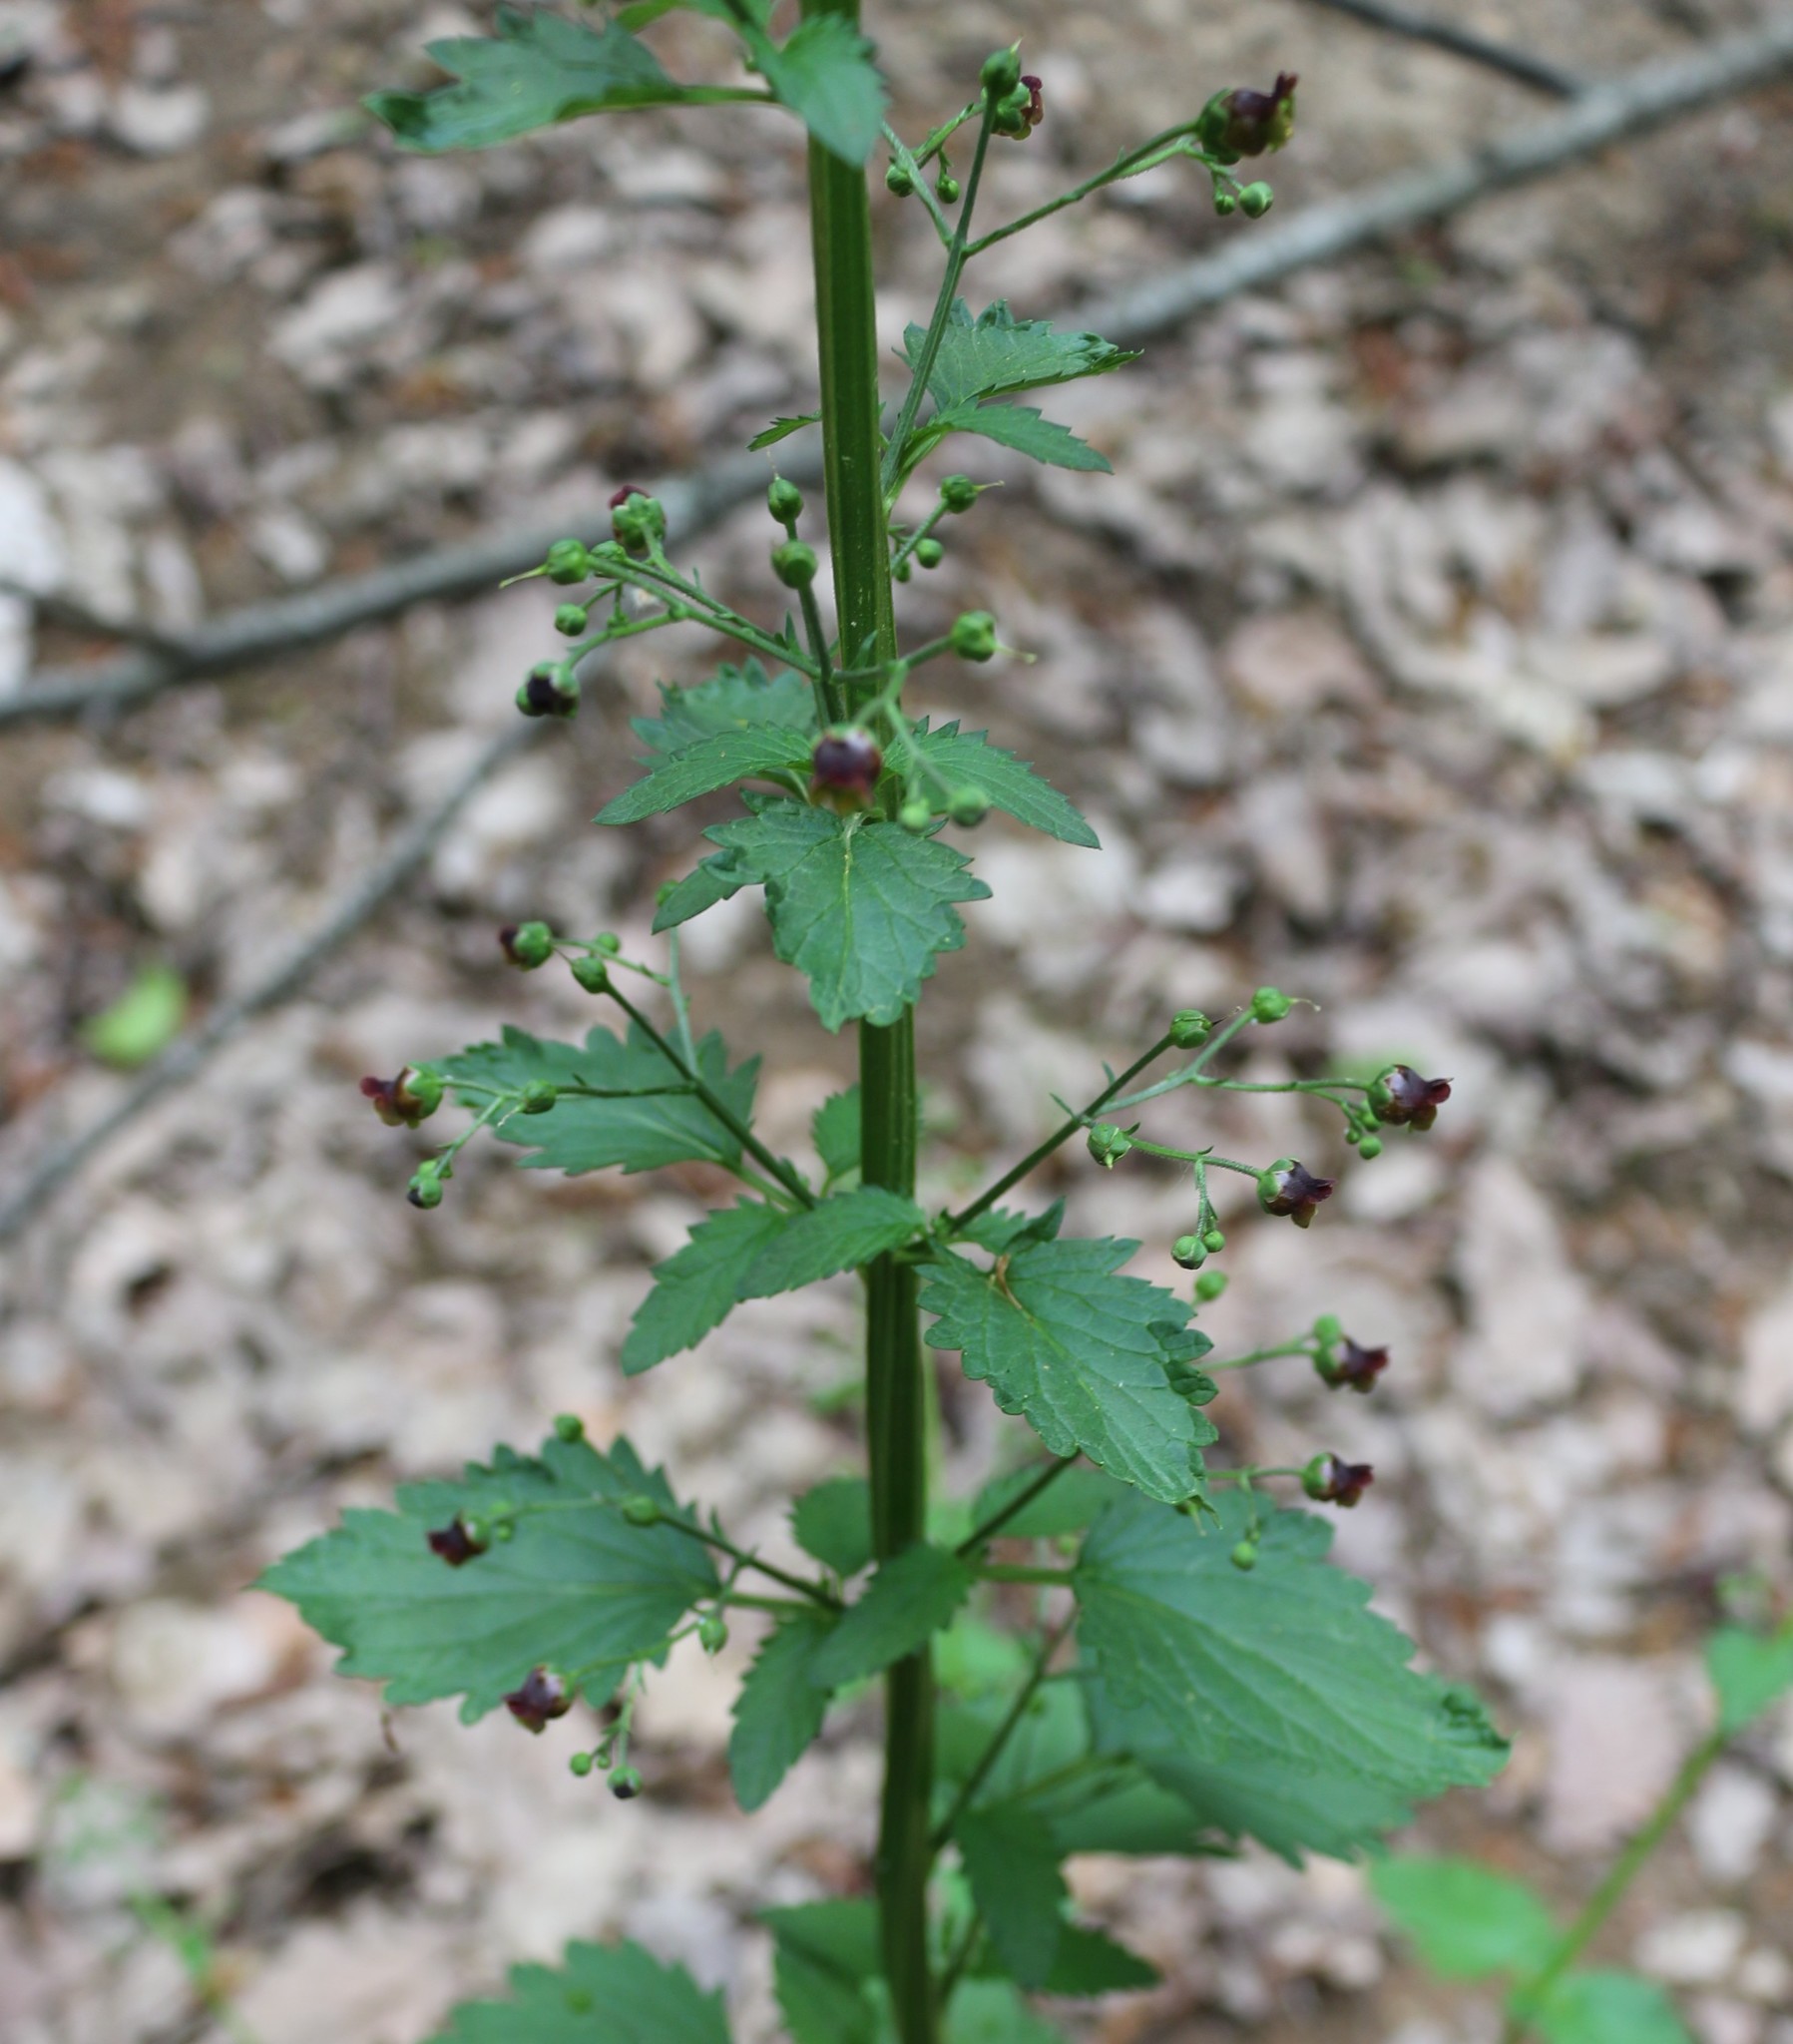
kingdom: Plantae
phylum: Tracheophyta
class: Magnoliopsida
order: Lamiales
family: Scrophulariaceae
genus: Scrophularia
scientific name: Scrophularia scopolii
